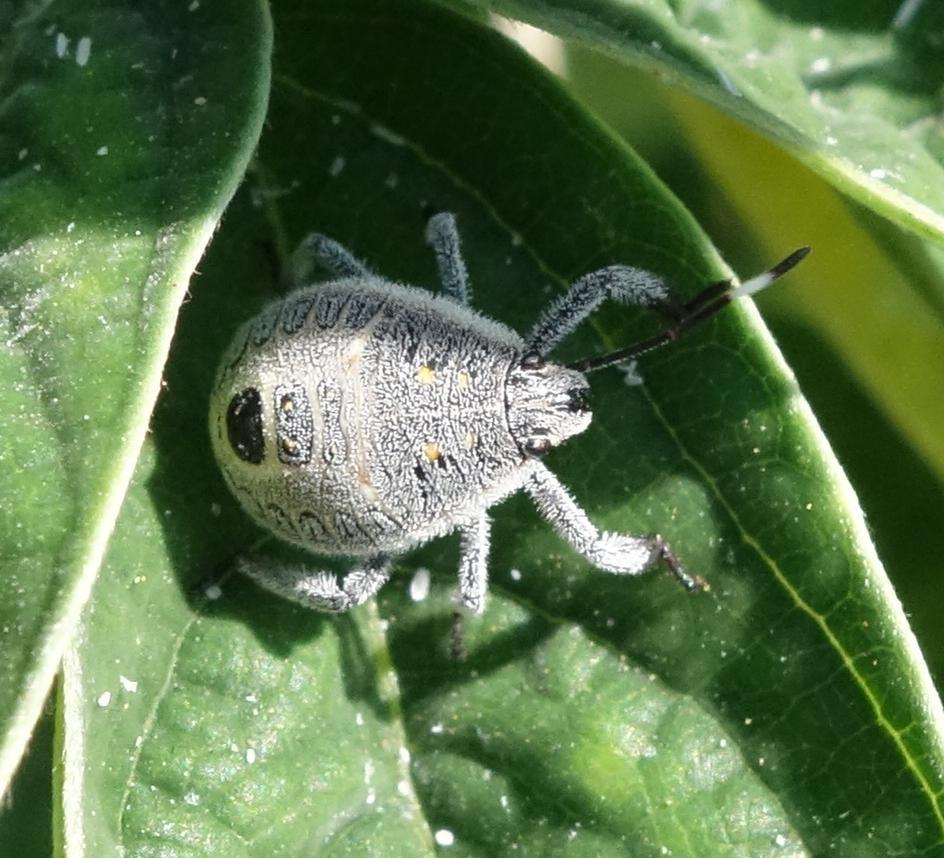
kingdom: Animalia
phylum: Arthropoda
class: Insecta
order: Hemiptera
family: Pentatomidae
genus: Erthesina
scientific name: Erthesina fullo
